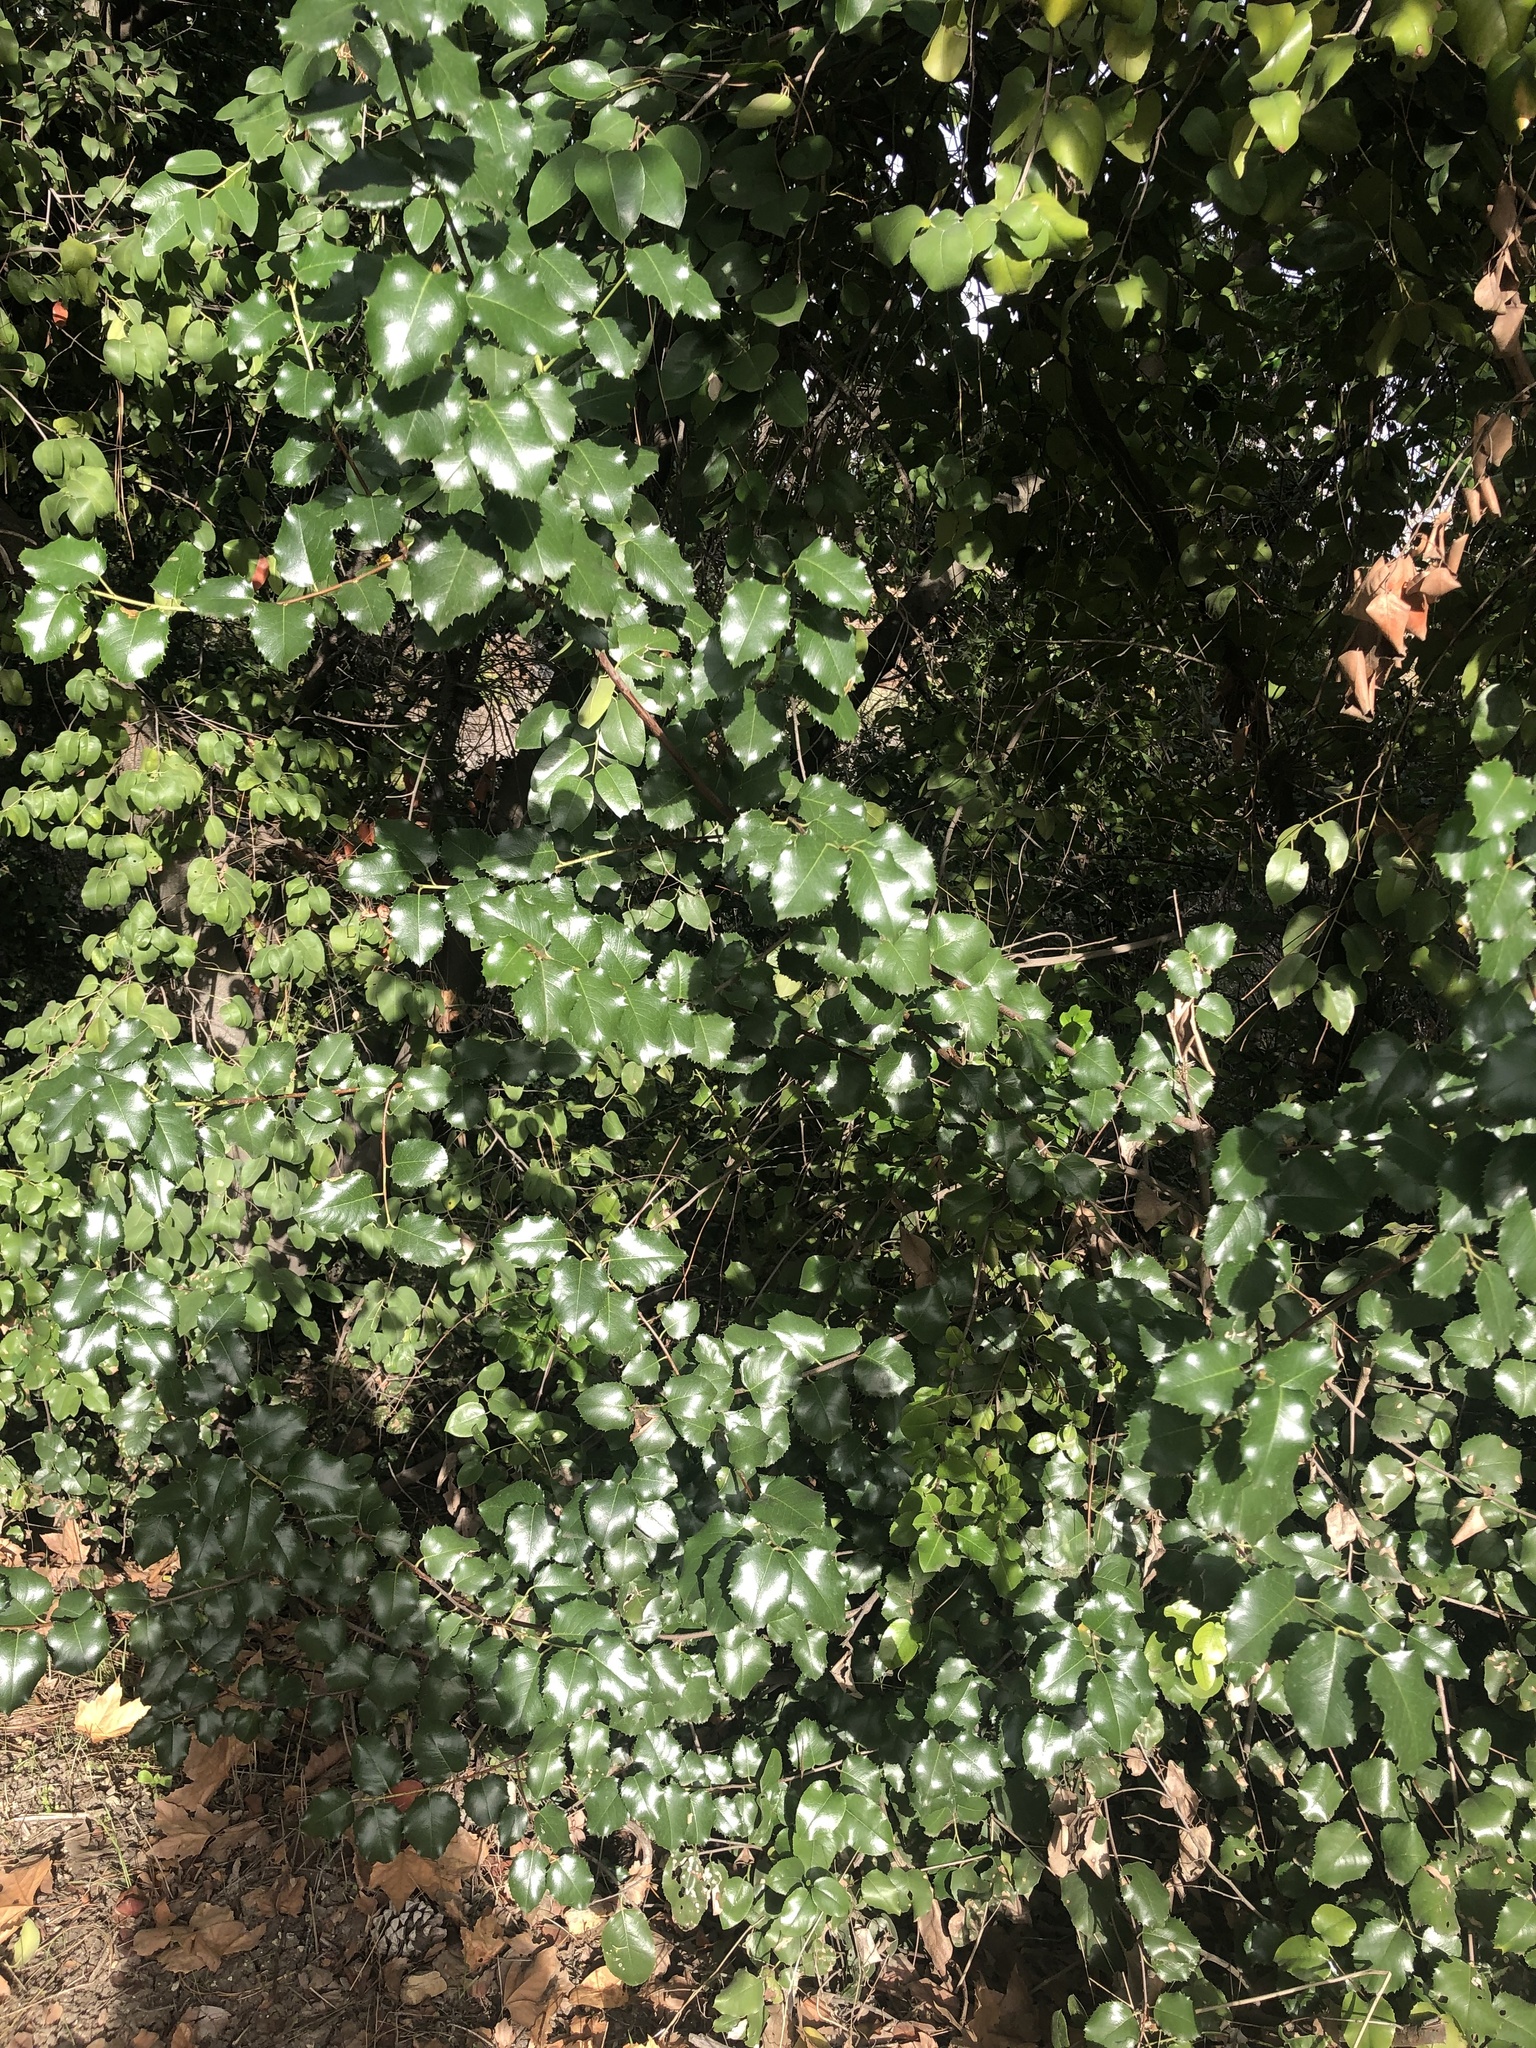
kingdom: Plantae
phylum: Tracheophyta
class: Magnoliopsida
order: Rosales
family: Rosaceae
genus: Prunus
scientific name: Prunus ilicifolia
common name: Hollyleaf cherry
